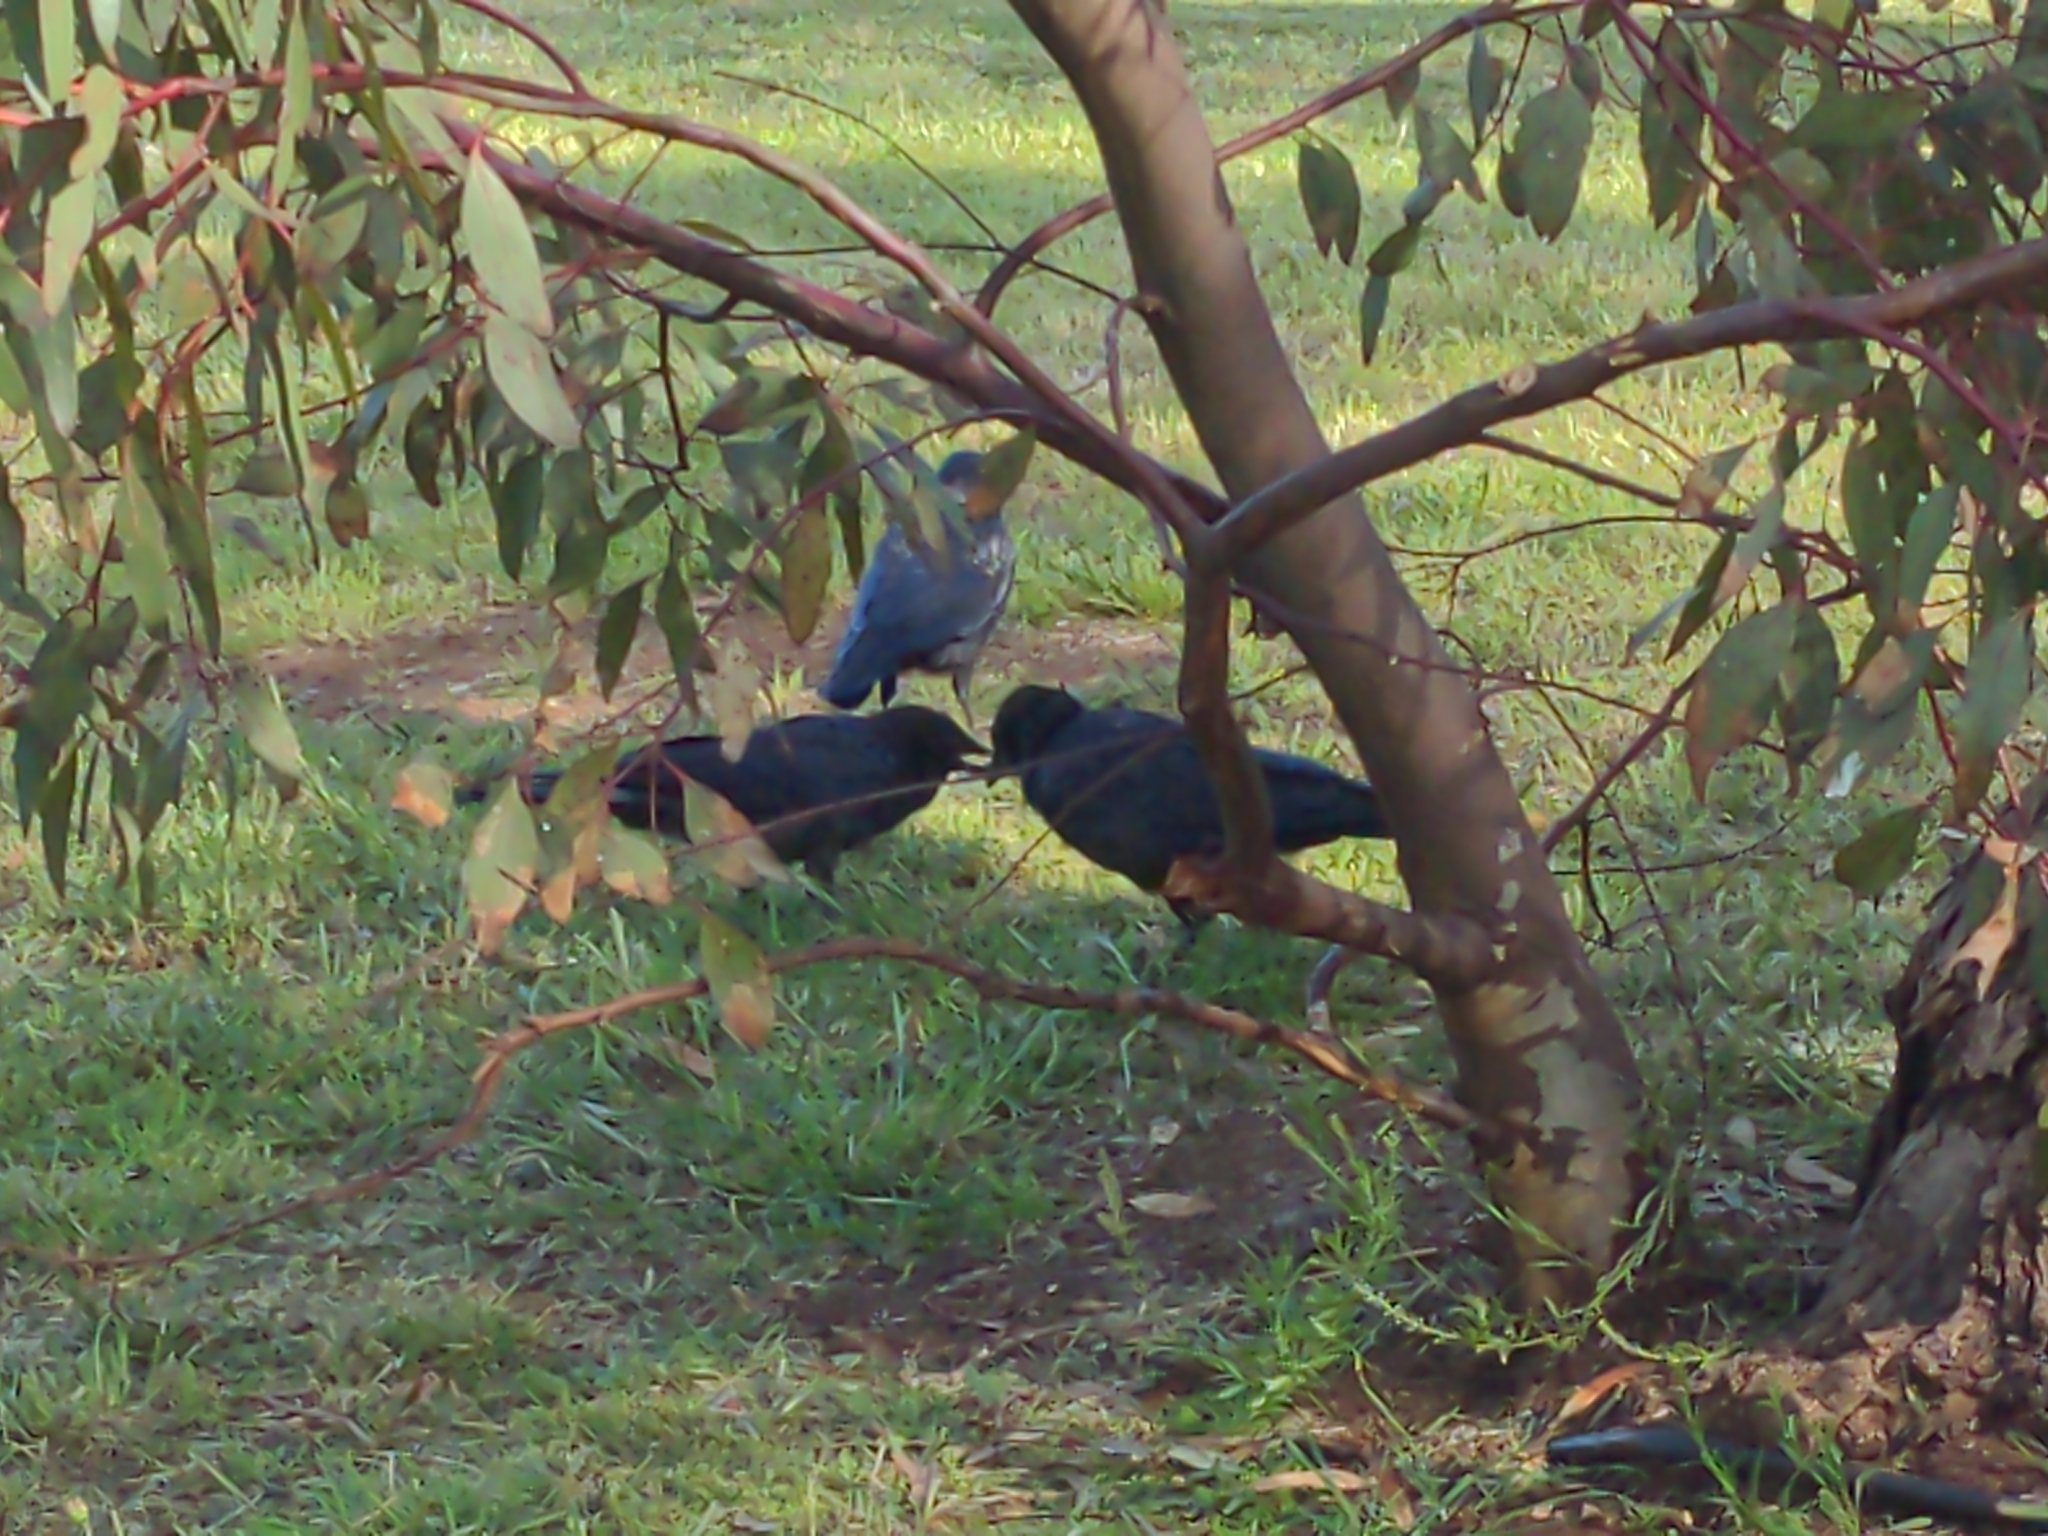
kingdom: Animalia
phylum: Chordata
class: Aves
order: Passeriformes
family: Corvidae
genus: Corvus
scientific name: Corvus mellori
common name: Little raven
